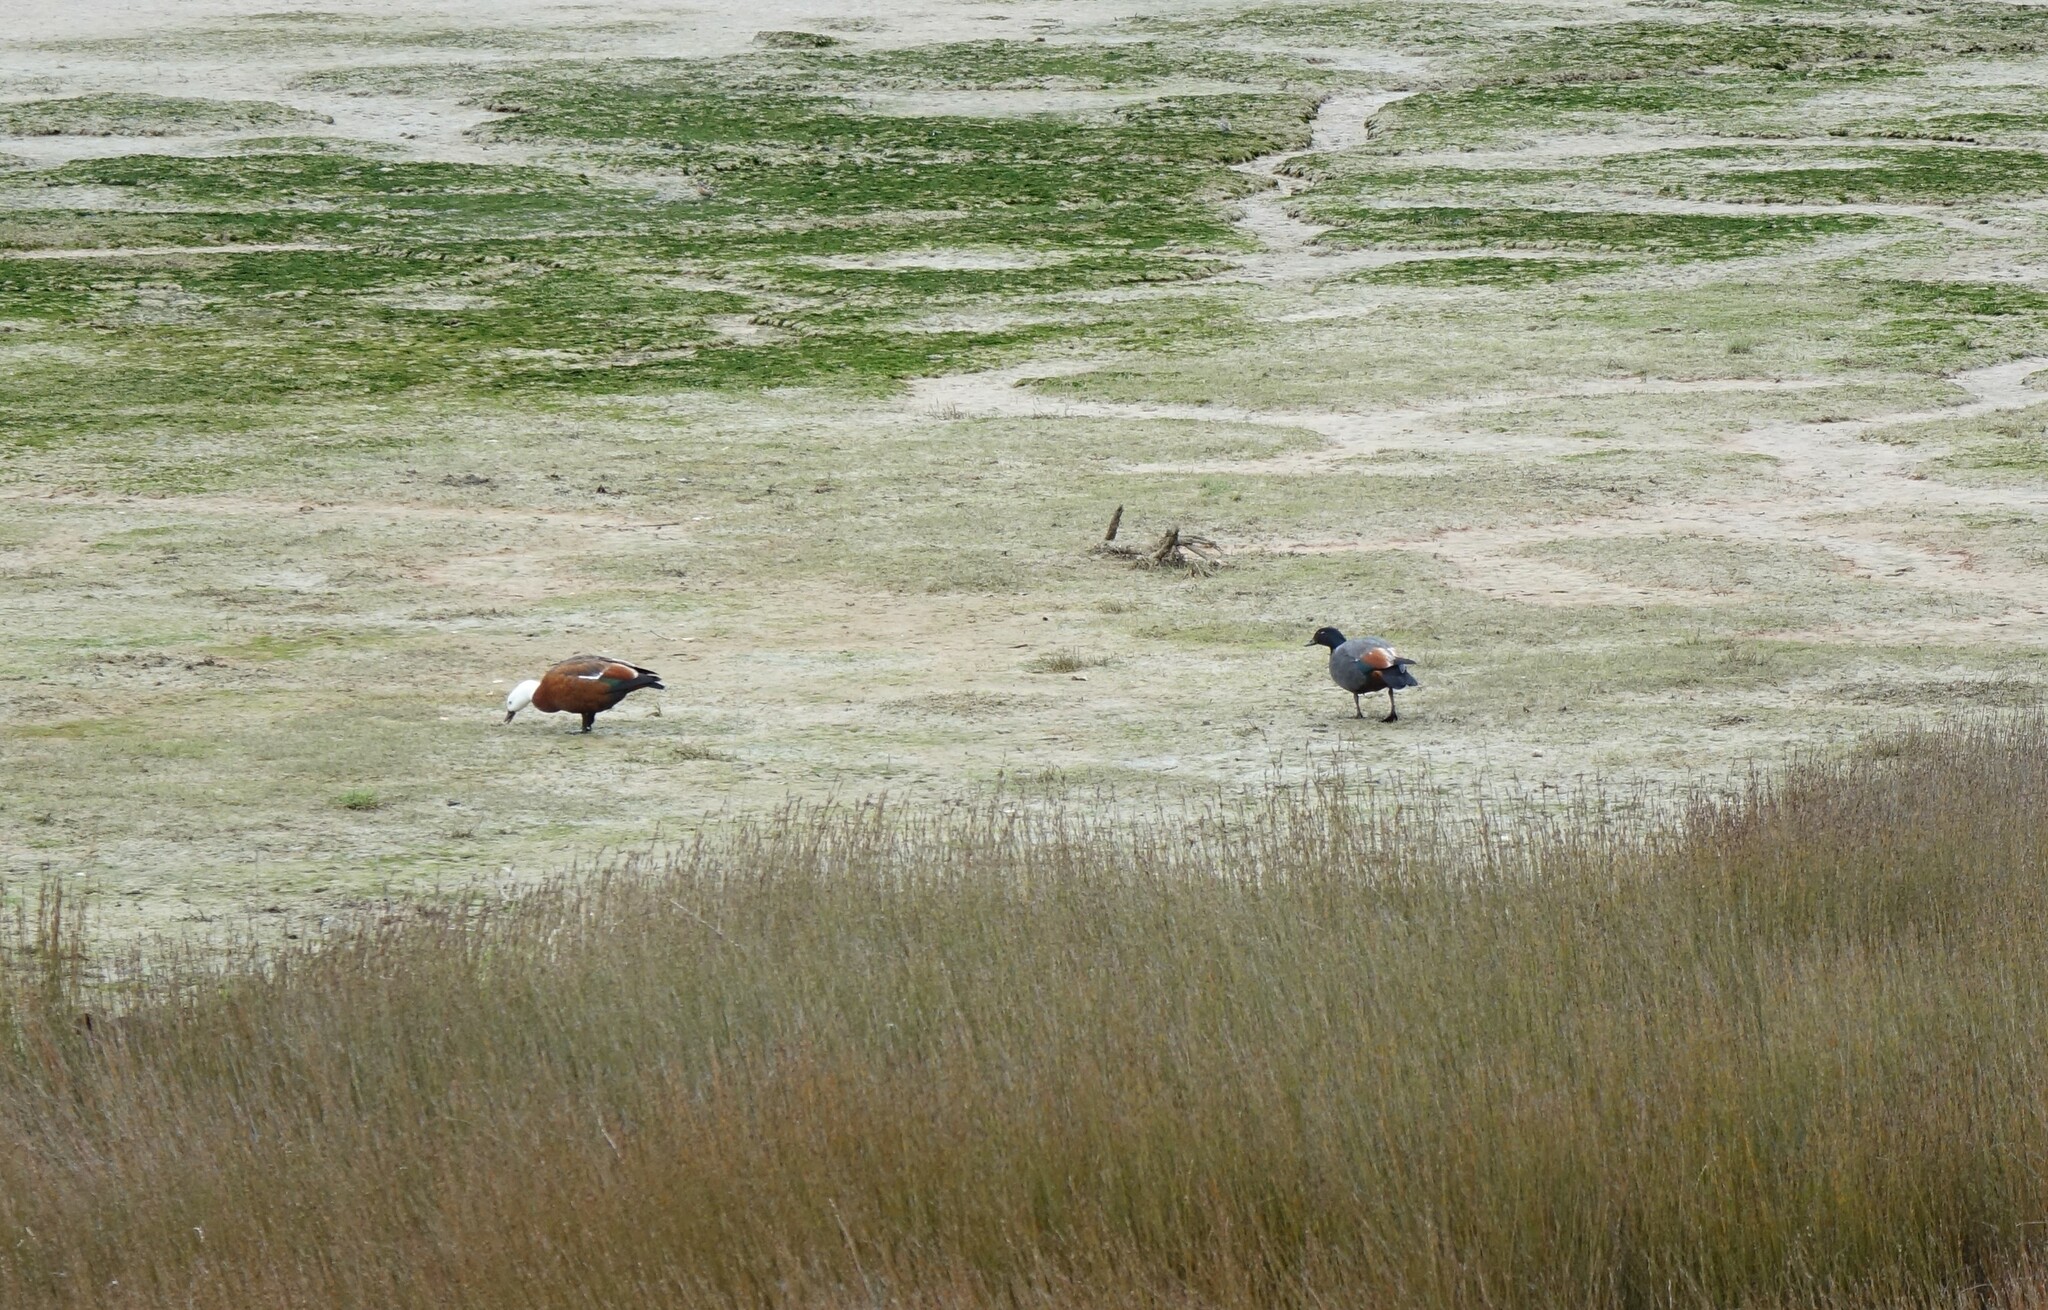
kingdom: Animalia
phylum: Chordata
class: Aves
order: Anseriformes
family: Anatidae
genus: Tadorna
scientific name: Tadorna variegata
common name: Paradise shelduck
